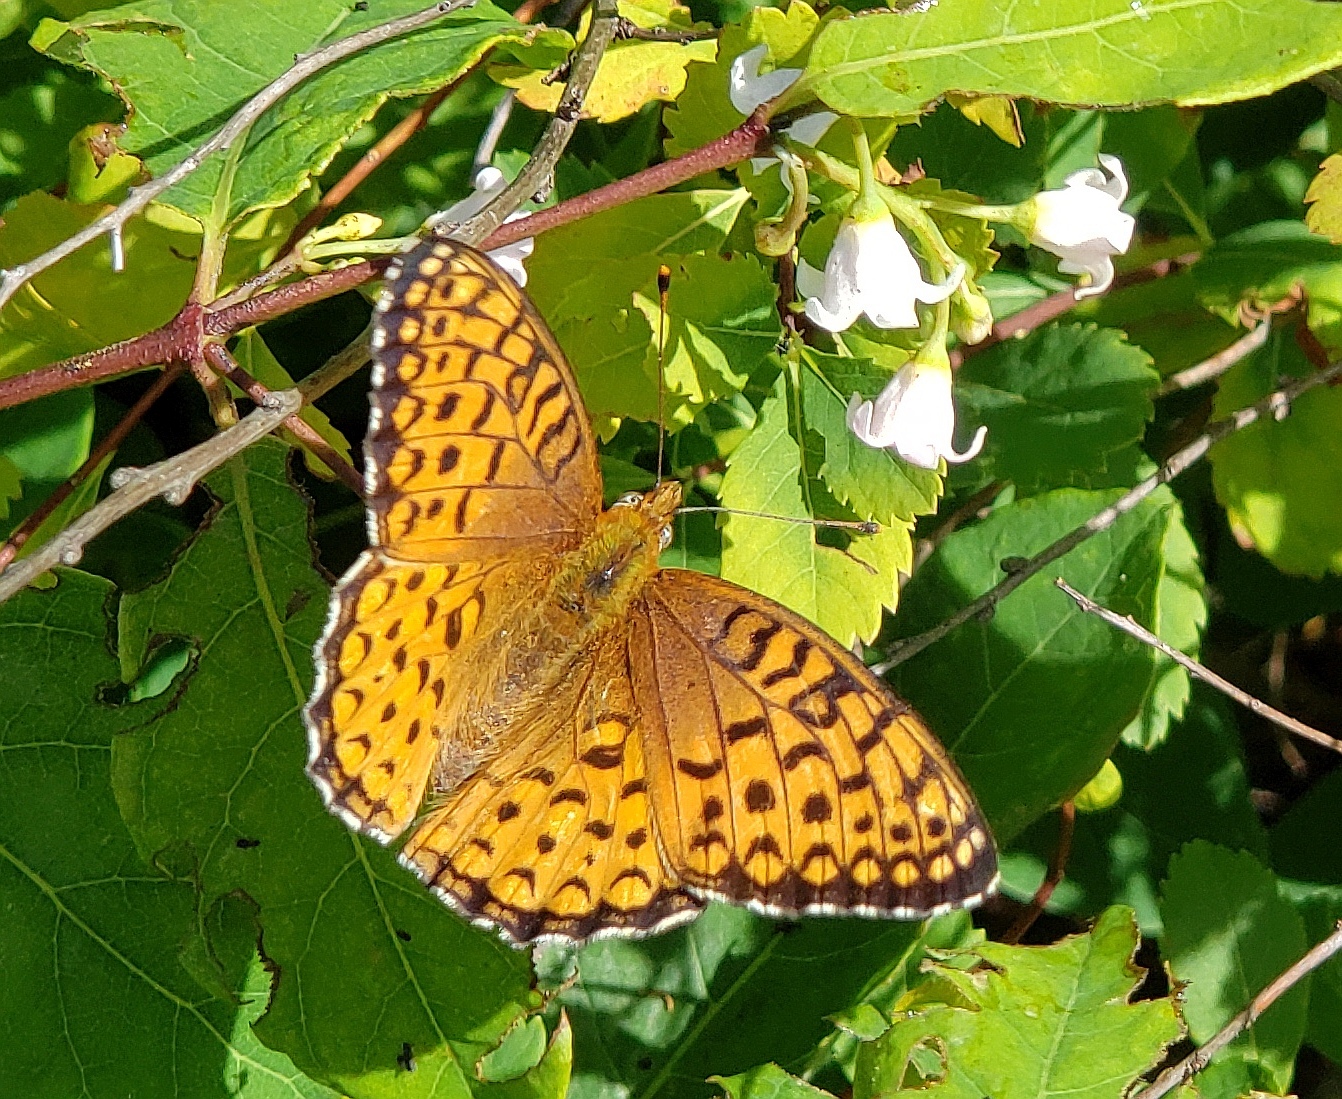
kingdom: Animalia
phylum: Arthropoda
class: Insecta
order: Lepidoptera
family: Nymphalidae
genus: Speyeria
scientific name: Speyeria atlantis
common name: Atlantis fritillary
